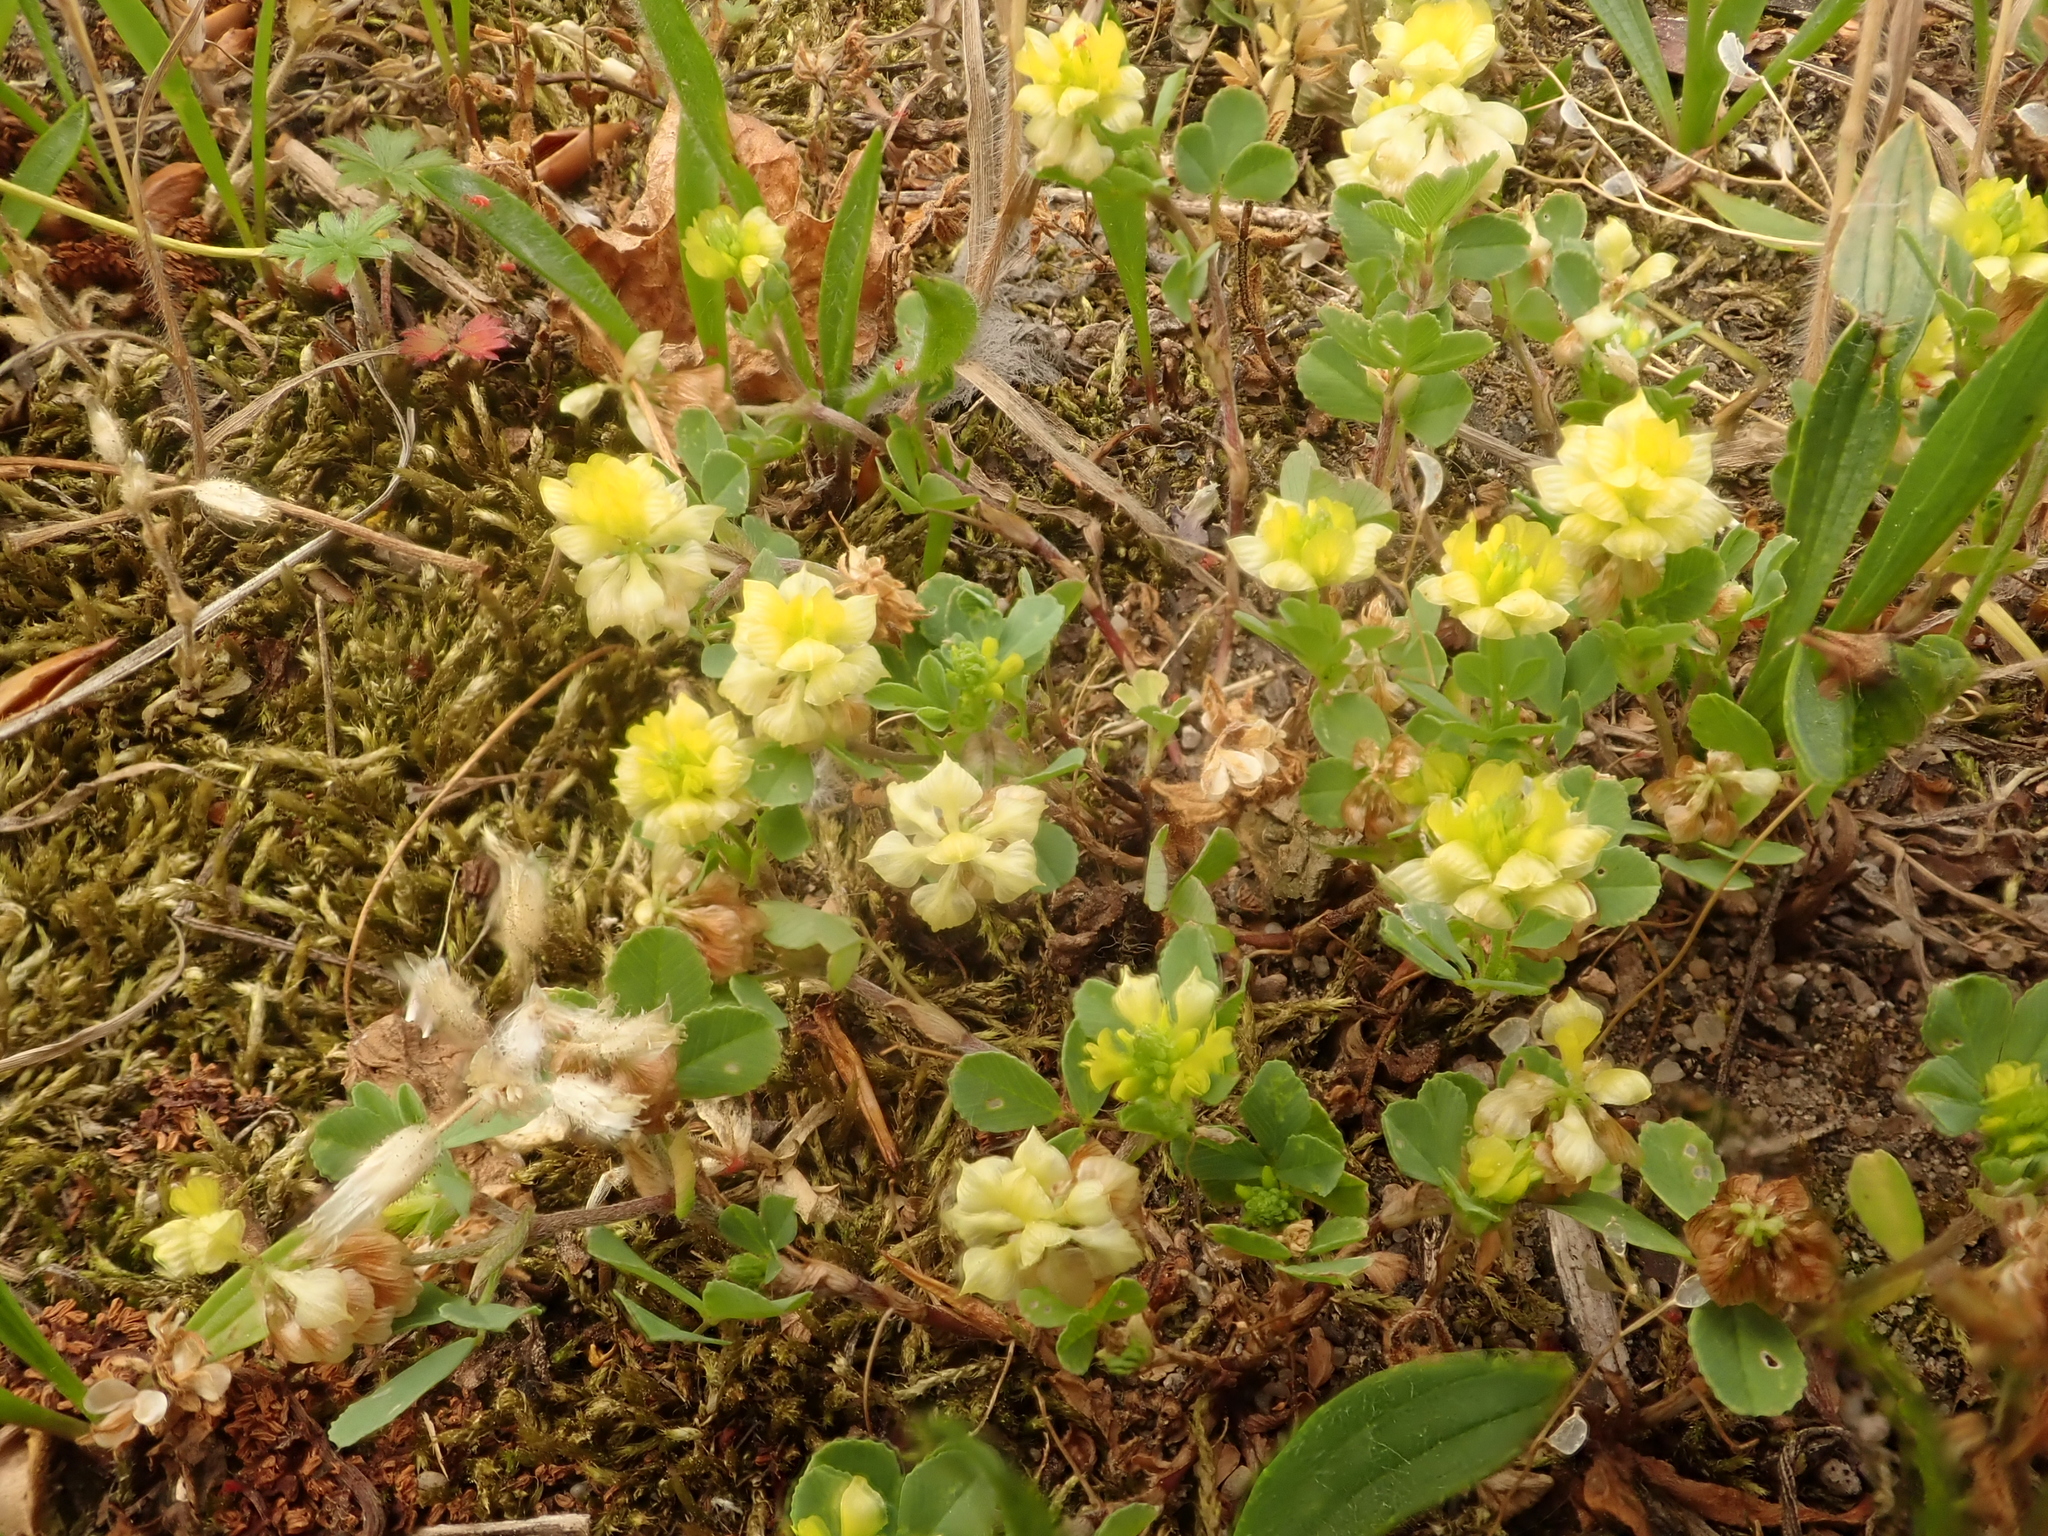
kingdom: Plantae
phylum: Tracheophyta
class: Magnoliopsida
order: Fabales
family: Fabaceae
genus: Trifolium
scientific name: Trifolium campestre
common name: Field clover
